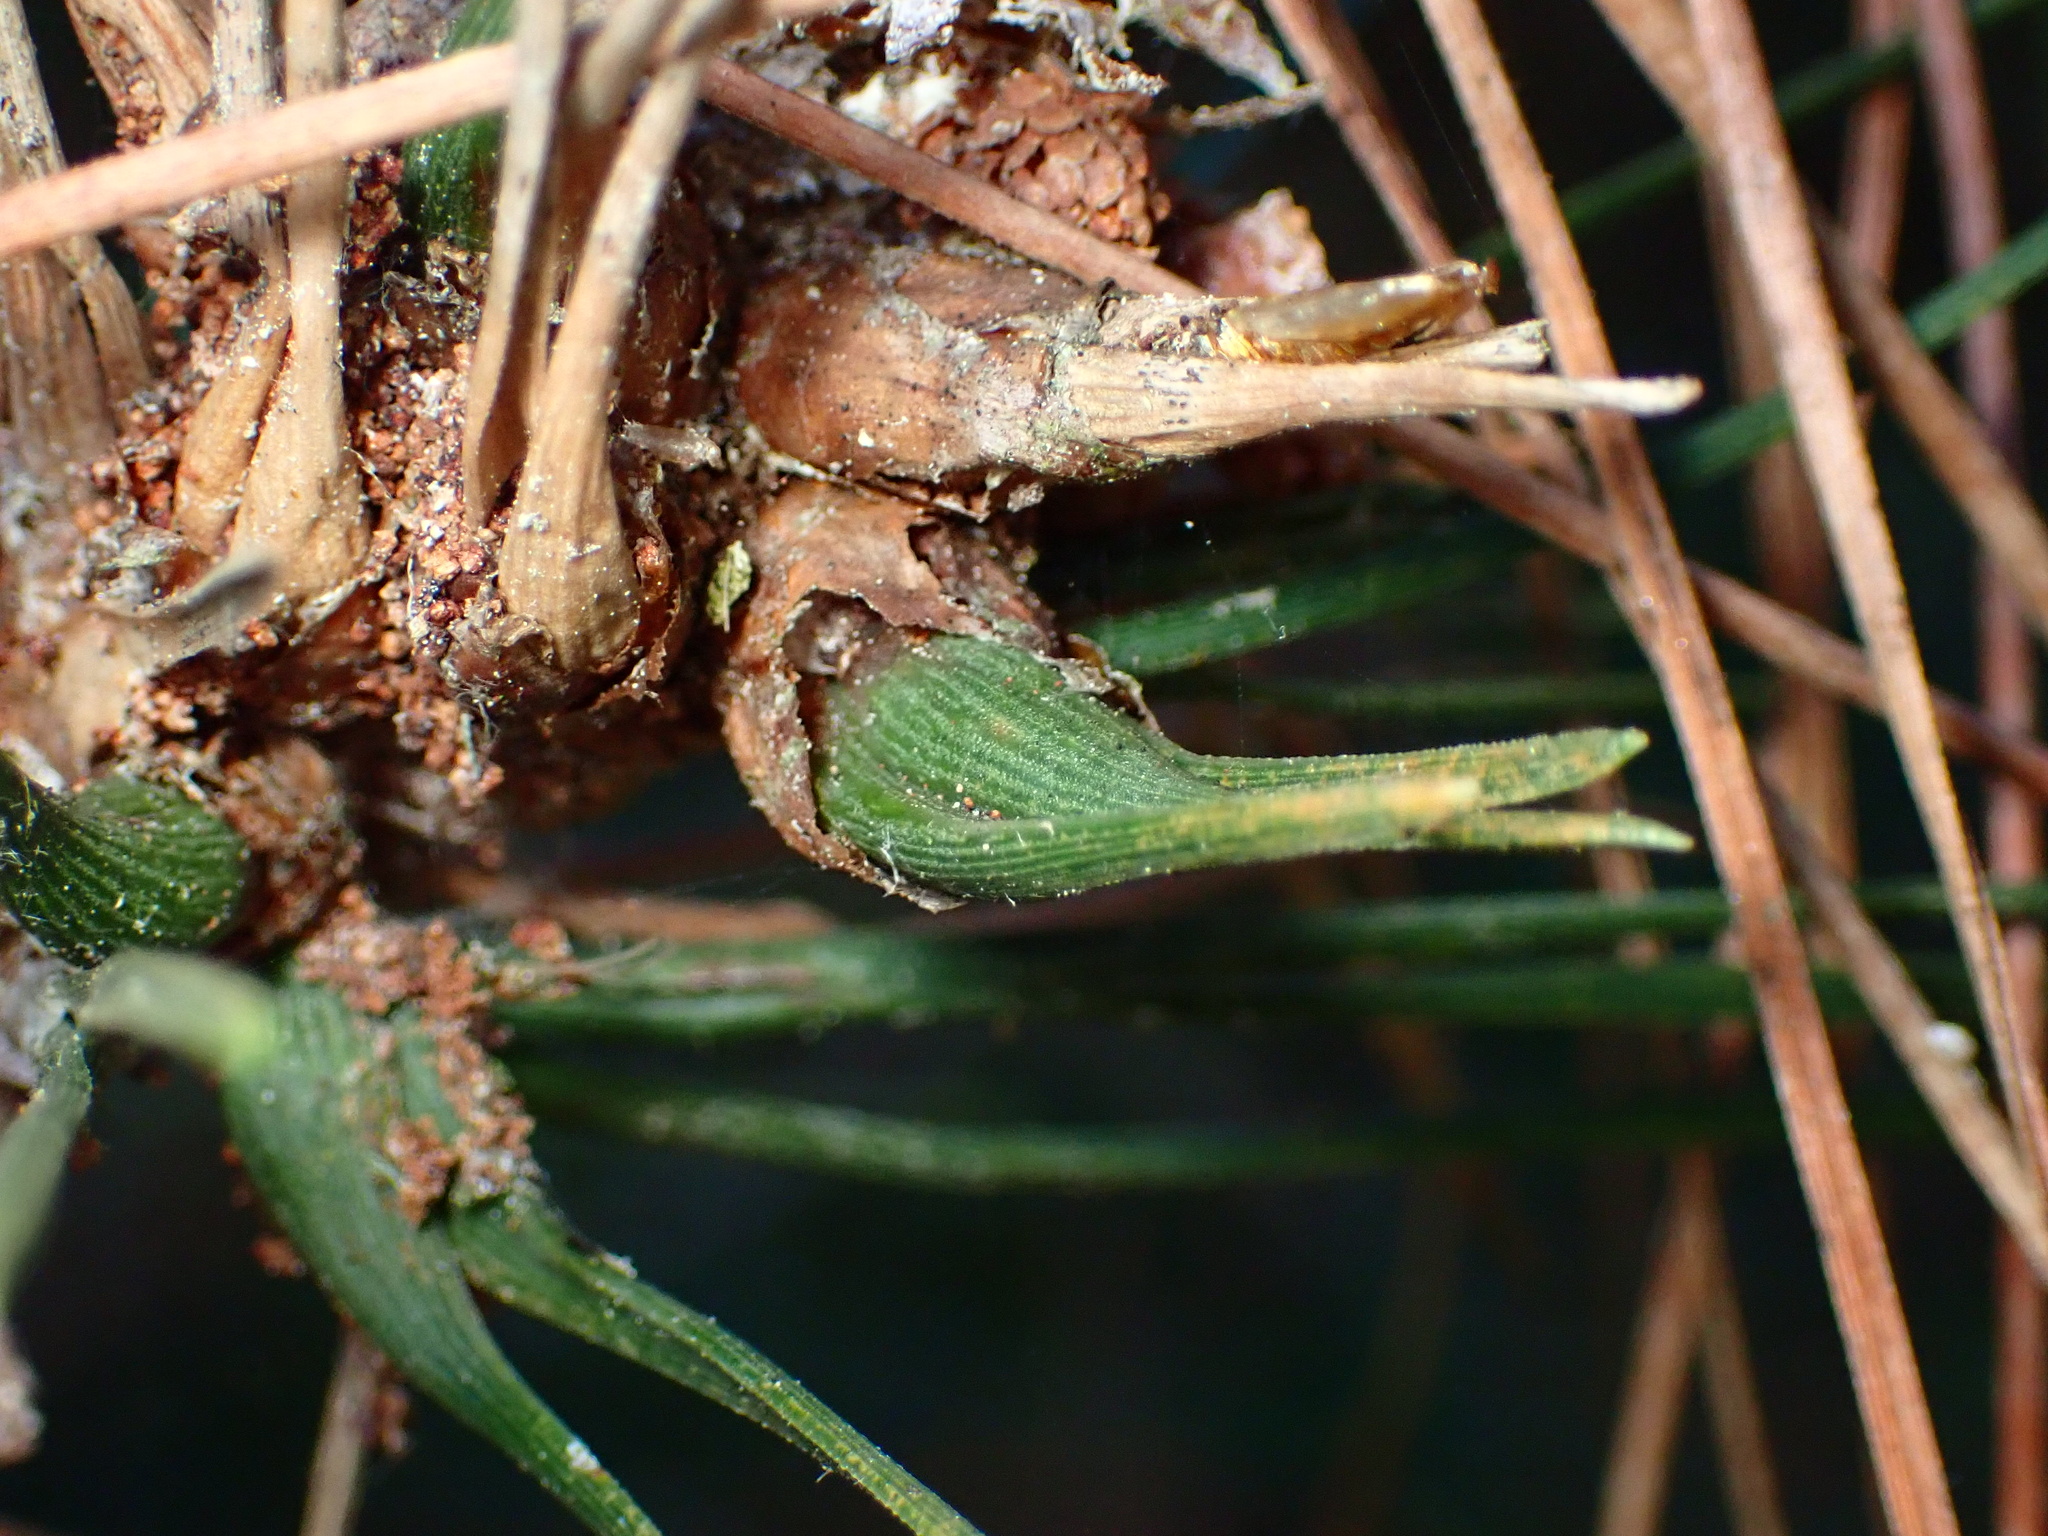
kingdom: Animalia
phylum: Arthropoda
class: Insecta
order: Diptera
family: Cecidomyiidae
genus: Thecodiplosis
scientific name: Thecodiplosis piniradiatae
